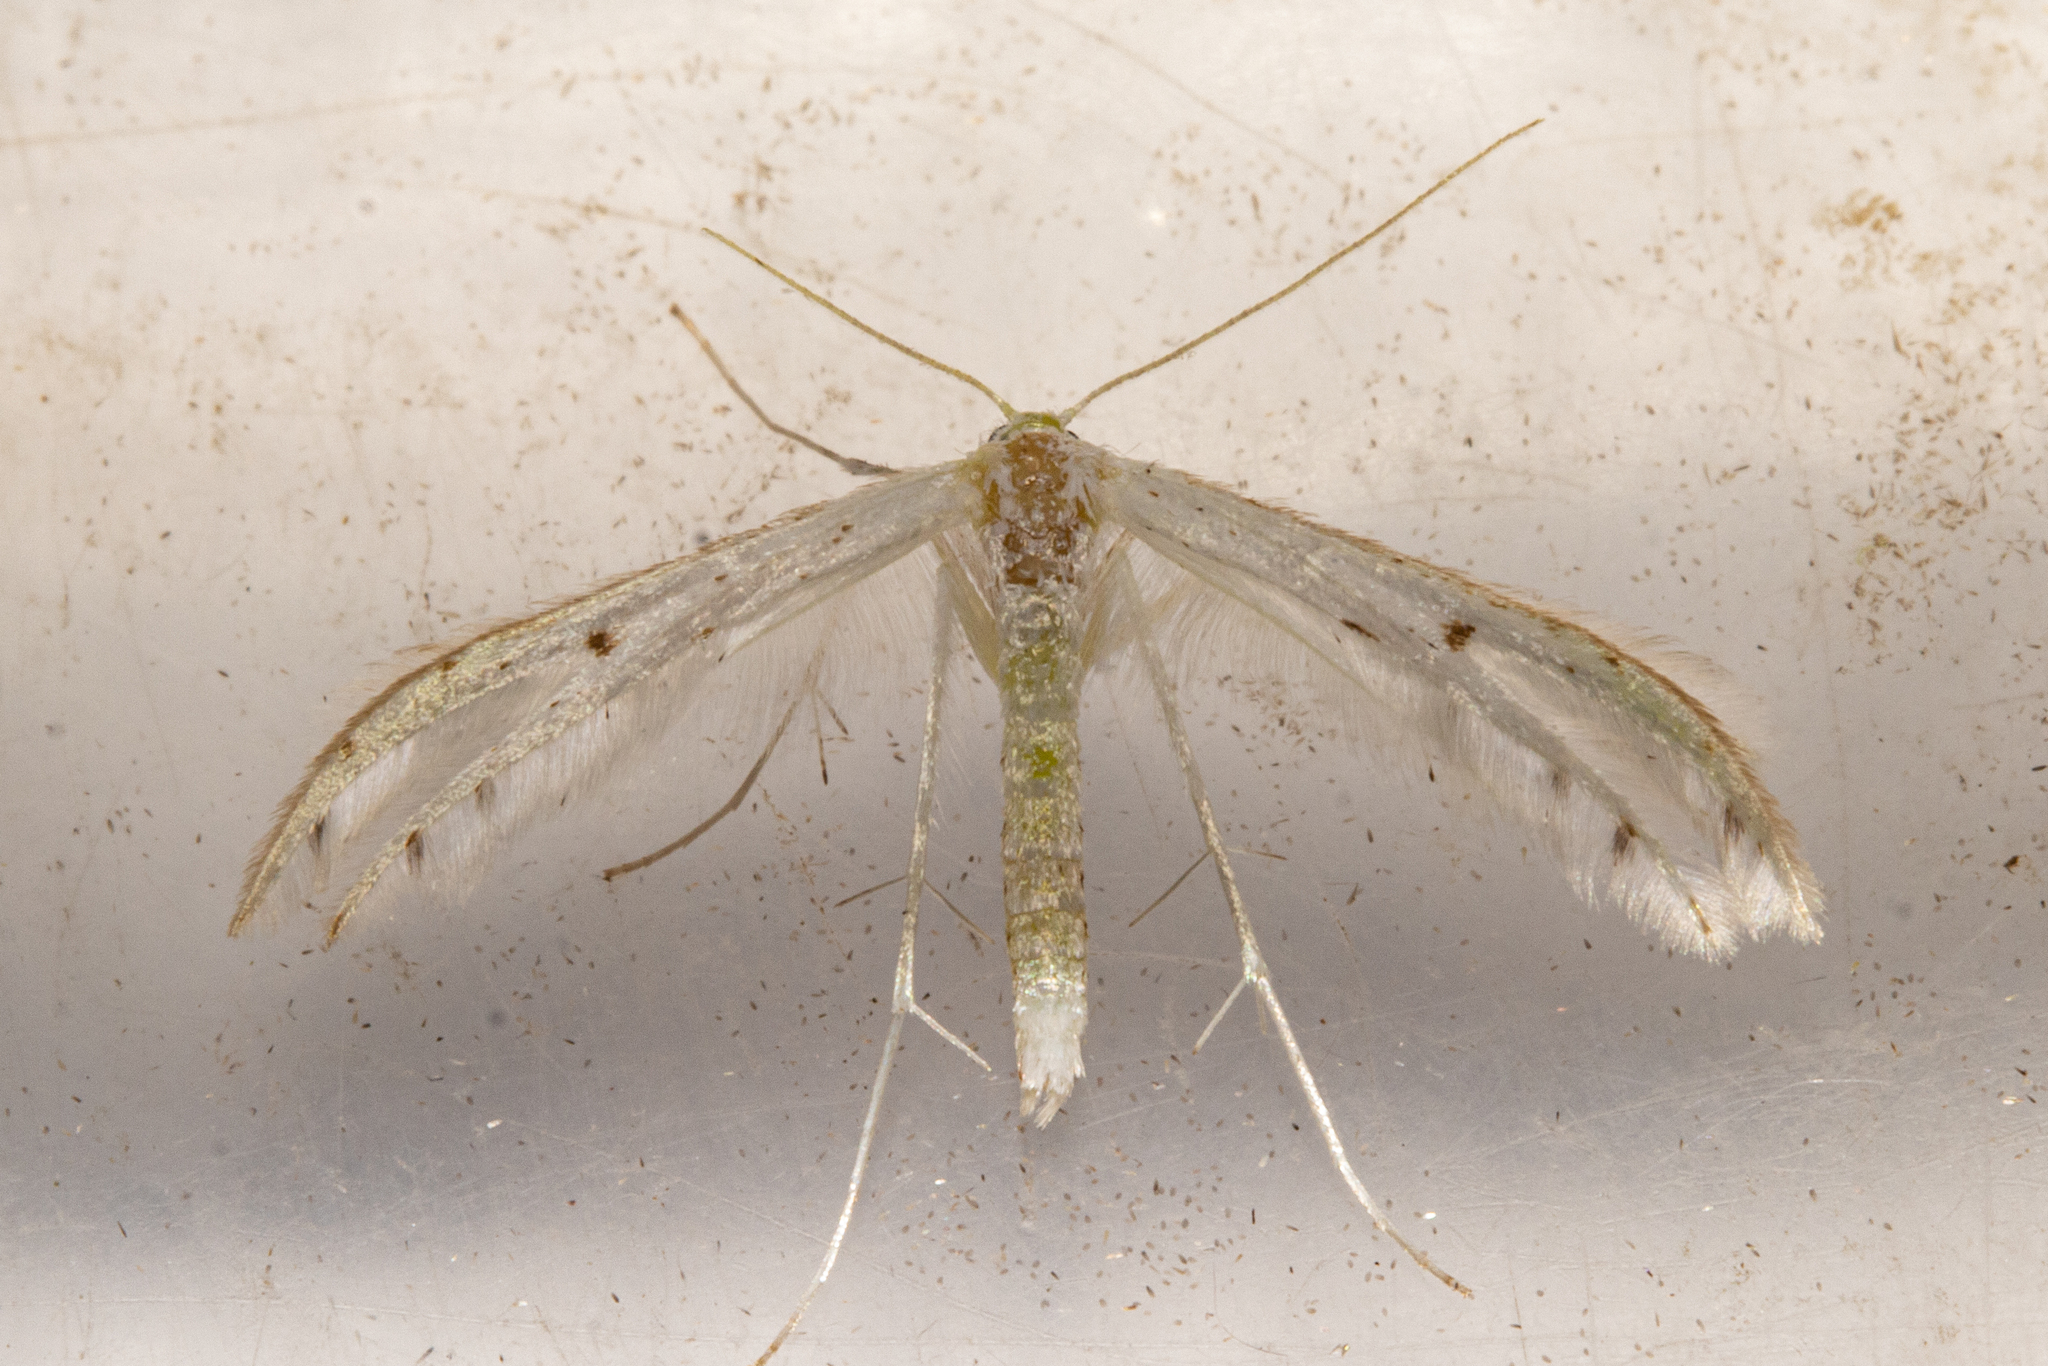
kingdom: Animalia
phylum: Arthropoda
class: Insecta
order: Lepidoptera
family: Pterophoridae
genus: Pterophorus
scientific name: Pterophorus monospilalis
